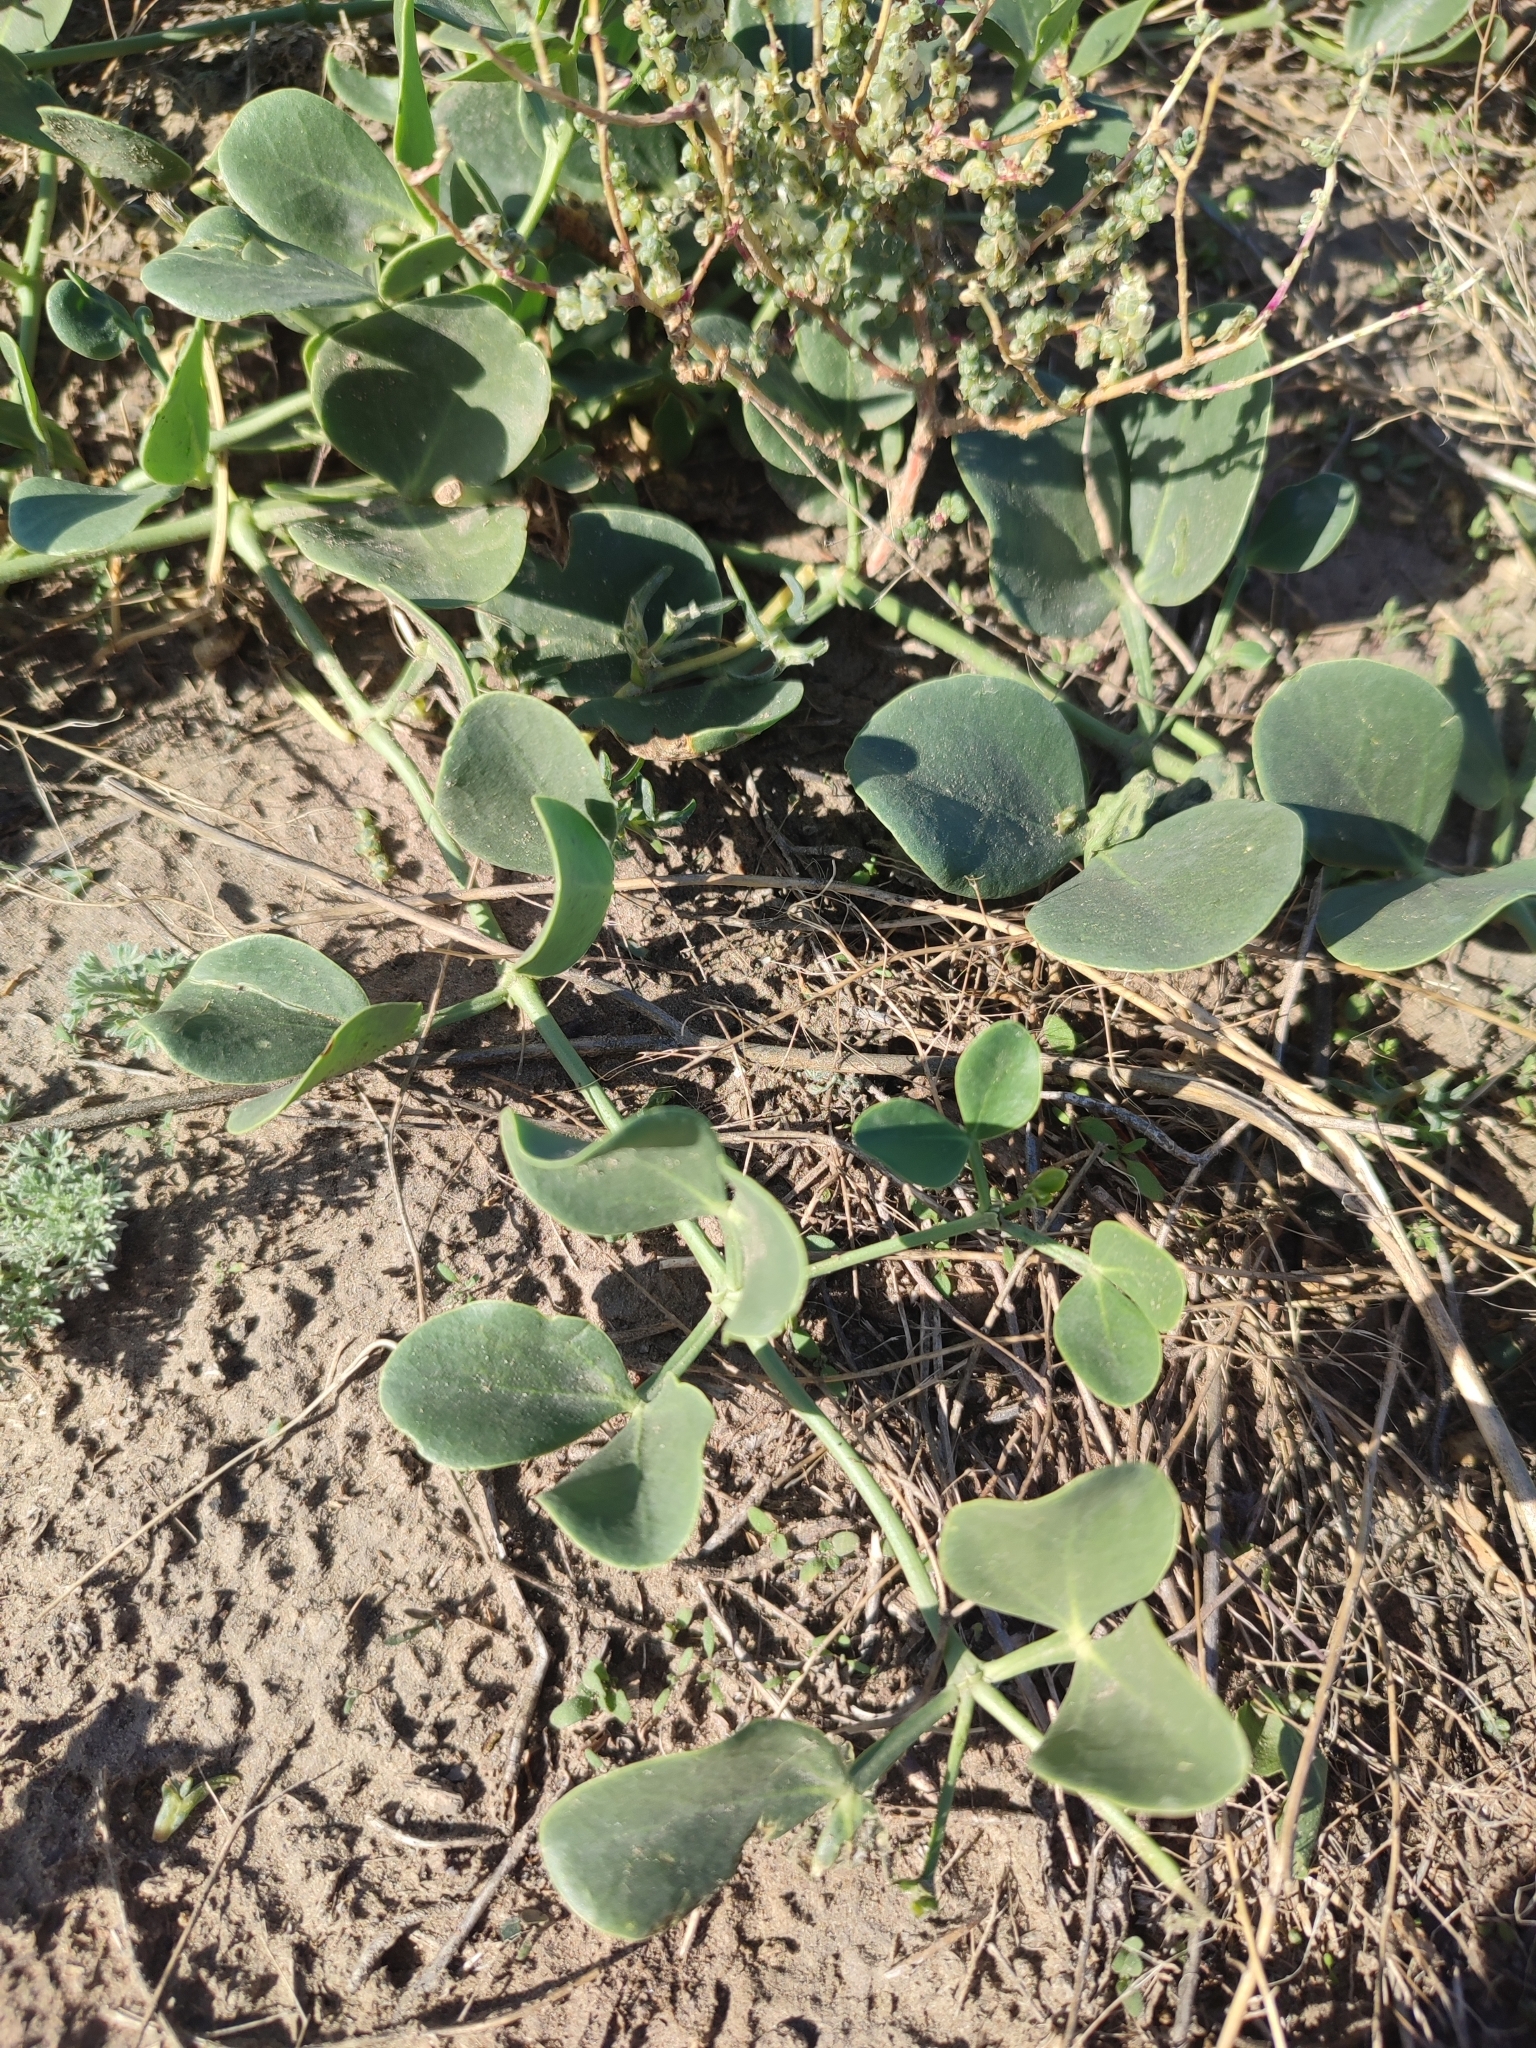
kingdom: Plantae
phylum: Tracheophyta
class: Magnoliopsida
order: Zygophyllales
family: Zygophyllaceae
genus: Zygophyllum
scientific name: Zygophyllum fabago
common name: Syrian beancaper
